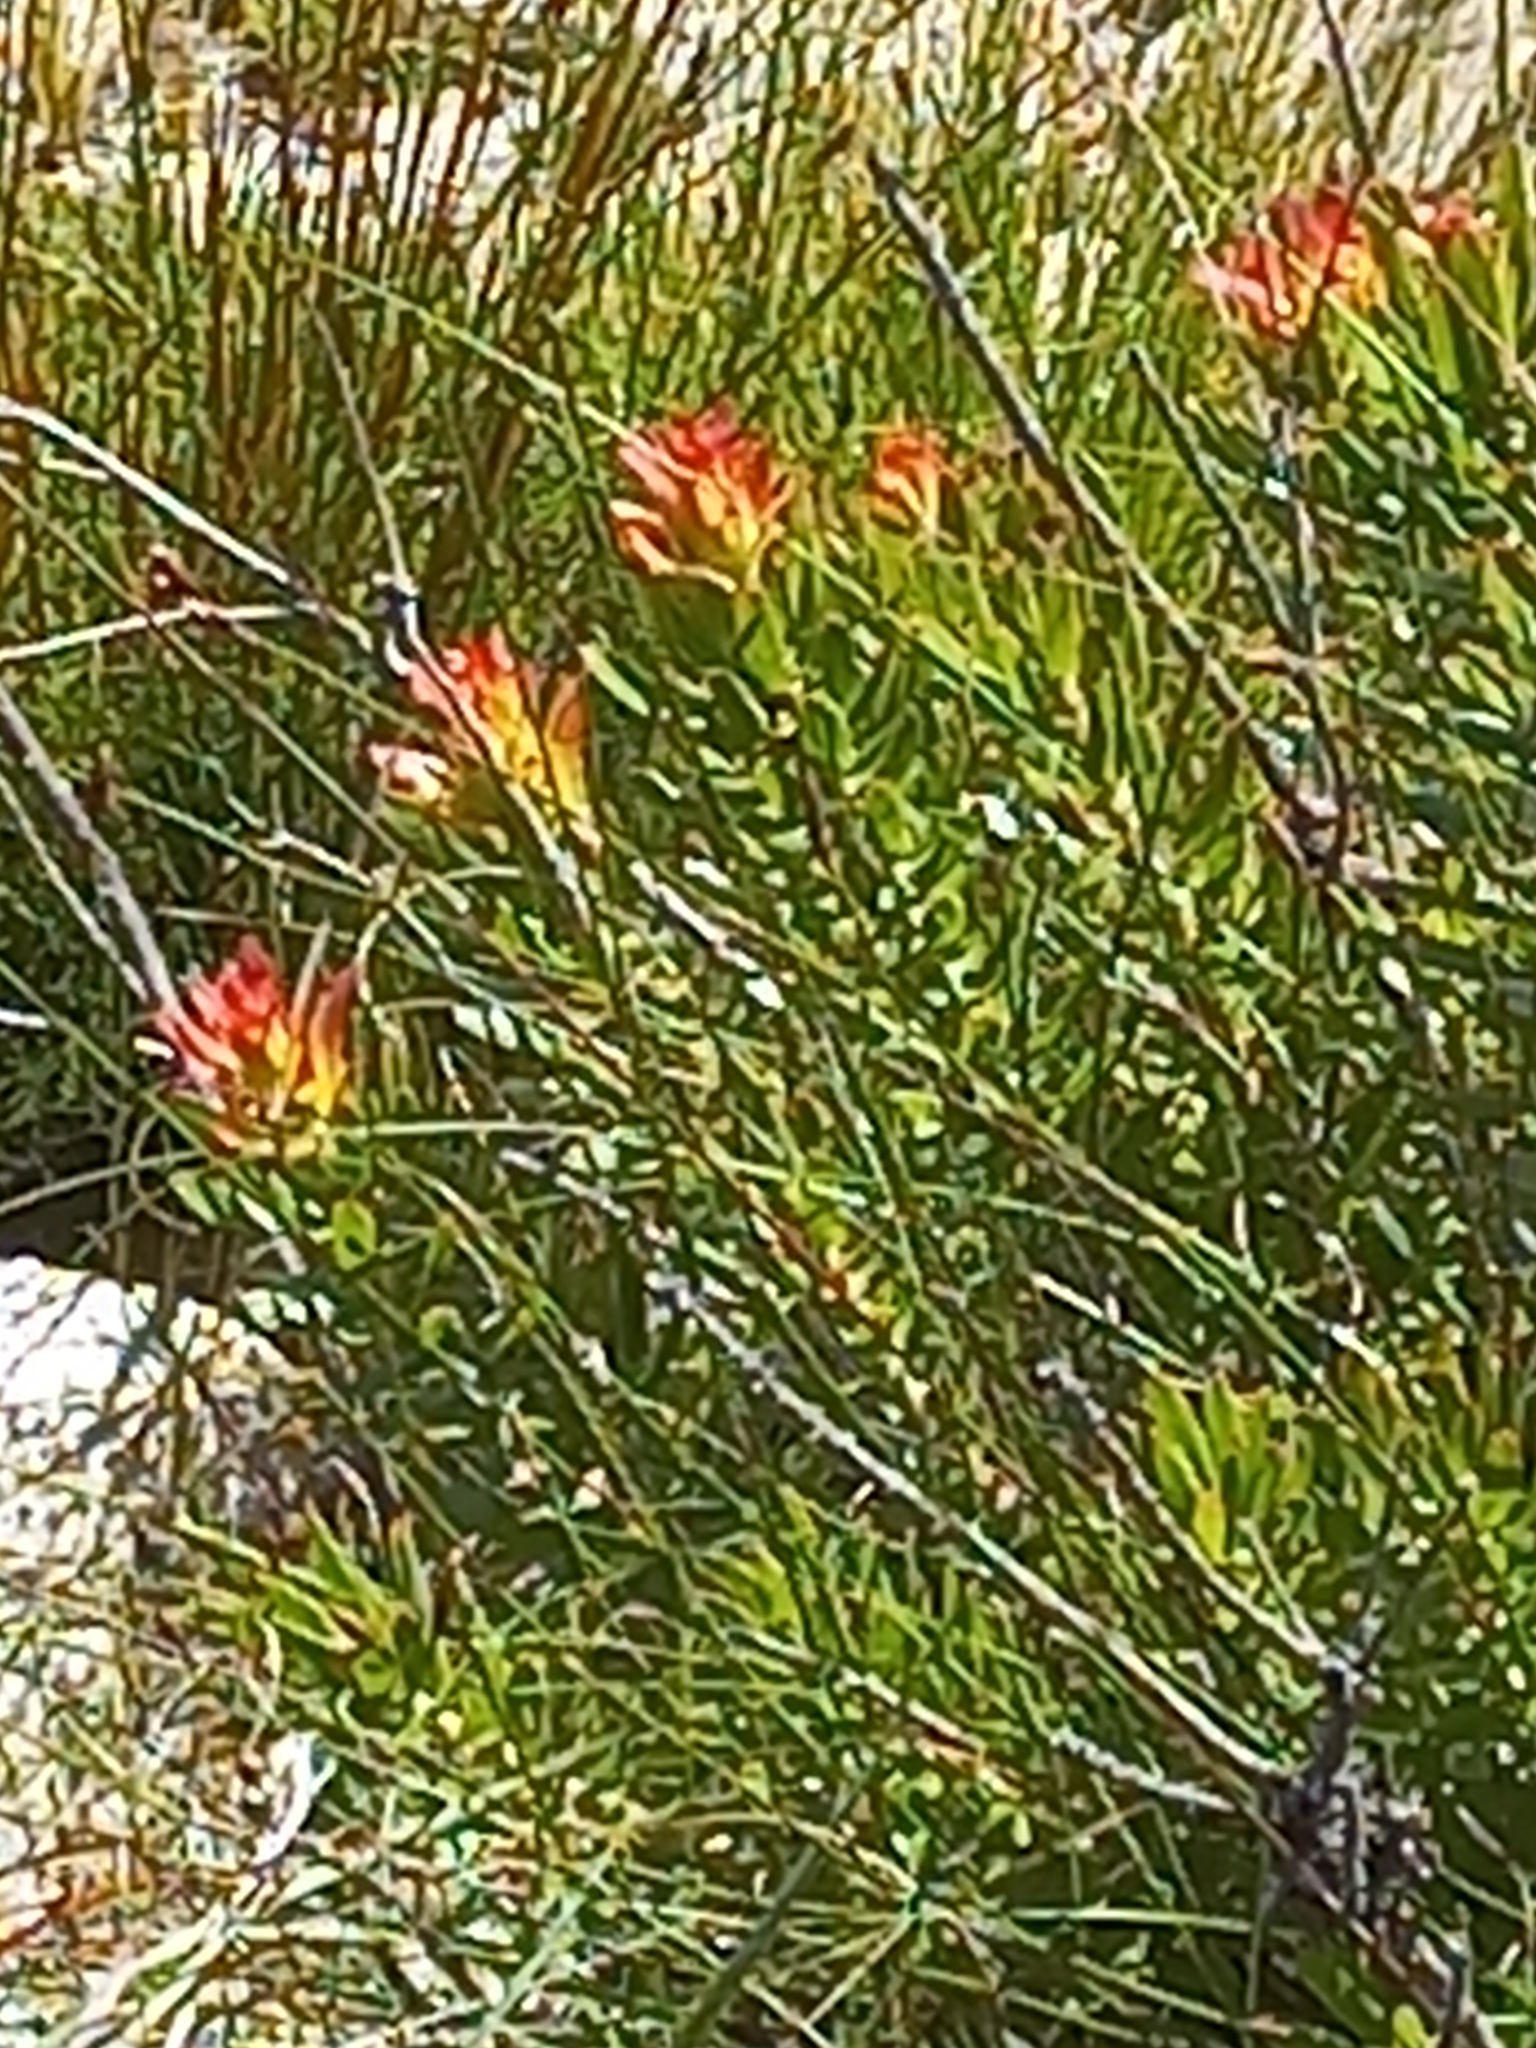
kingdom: Plantae
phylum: Tracheophyta
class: Magnoliopsida
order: Proteales
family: Proteaceae
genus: Mimetes
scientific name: Mimetes cucullatus
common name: Common pagoda
